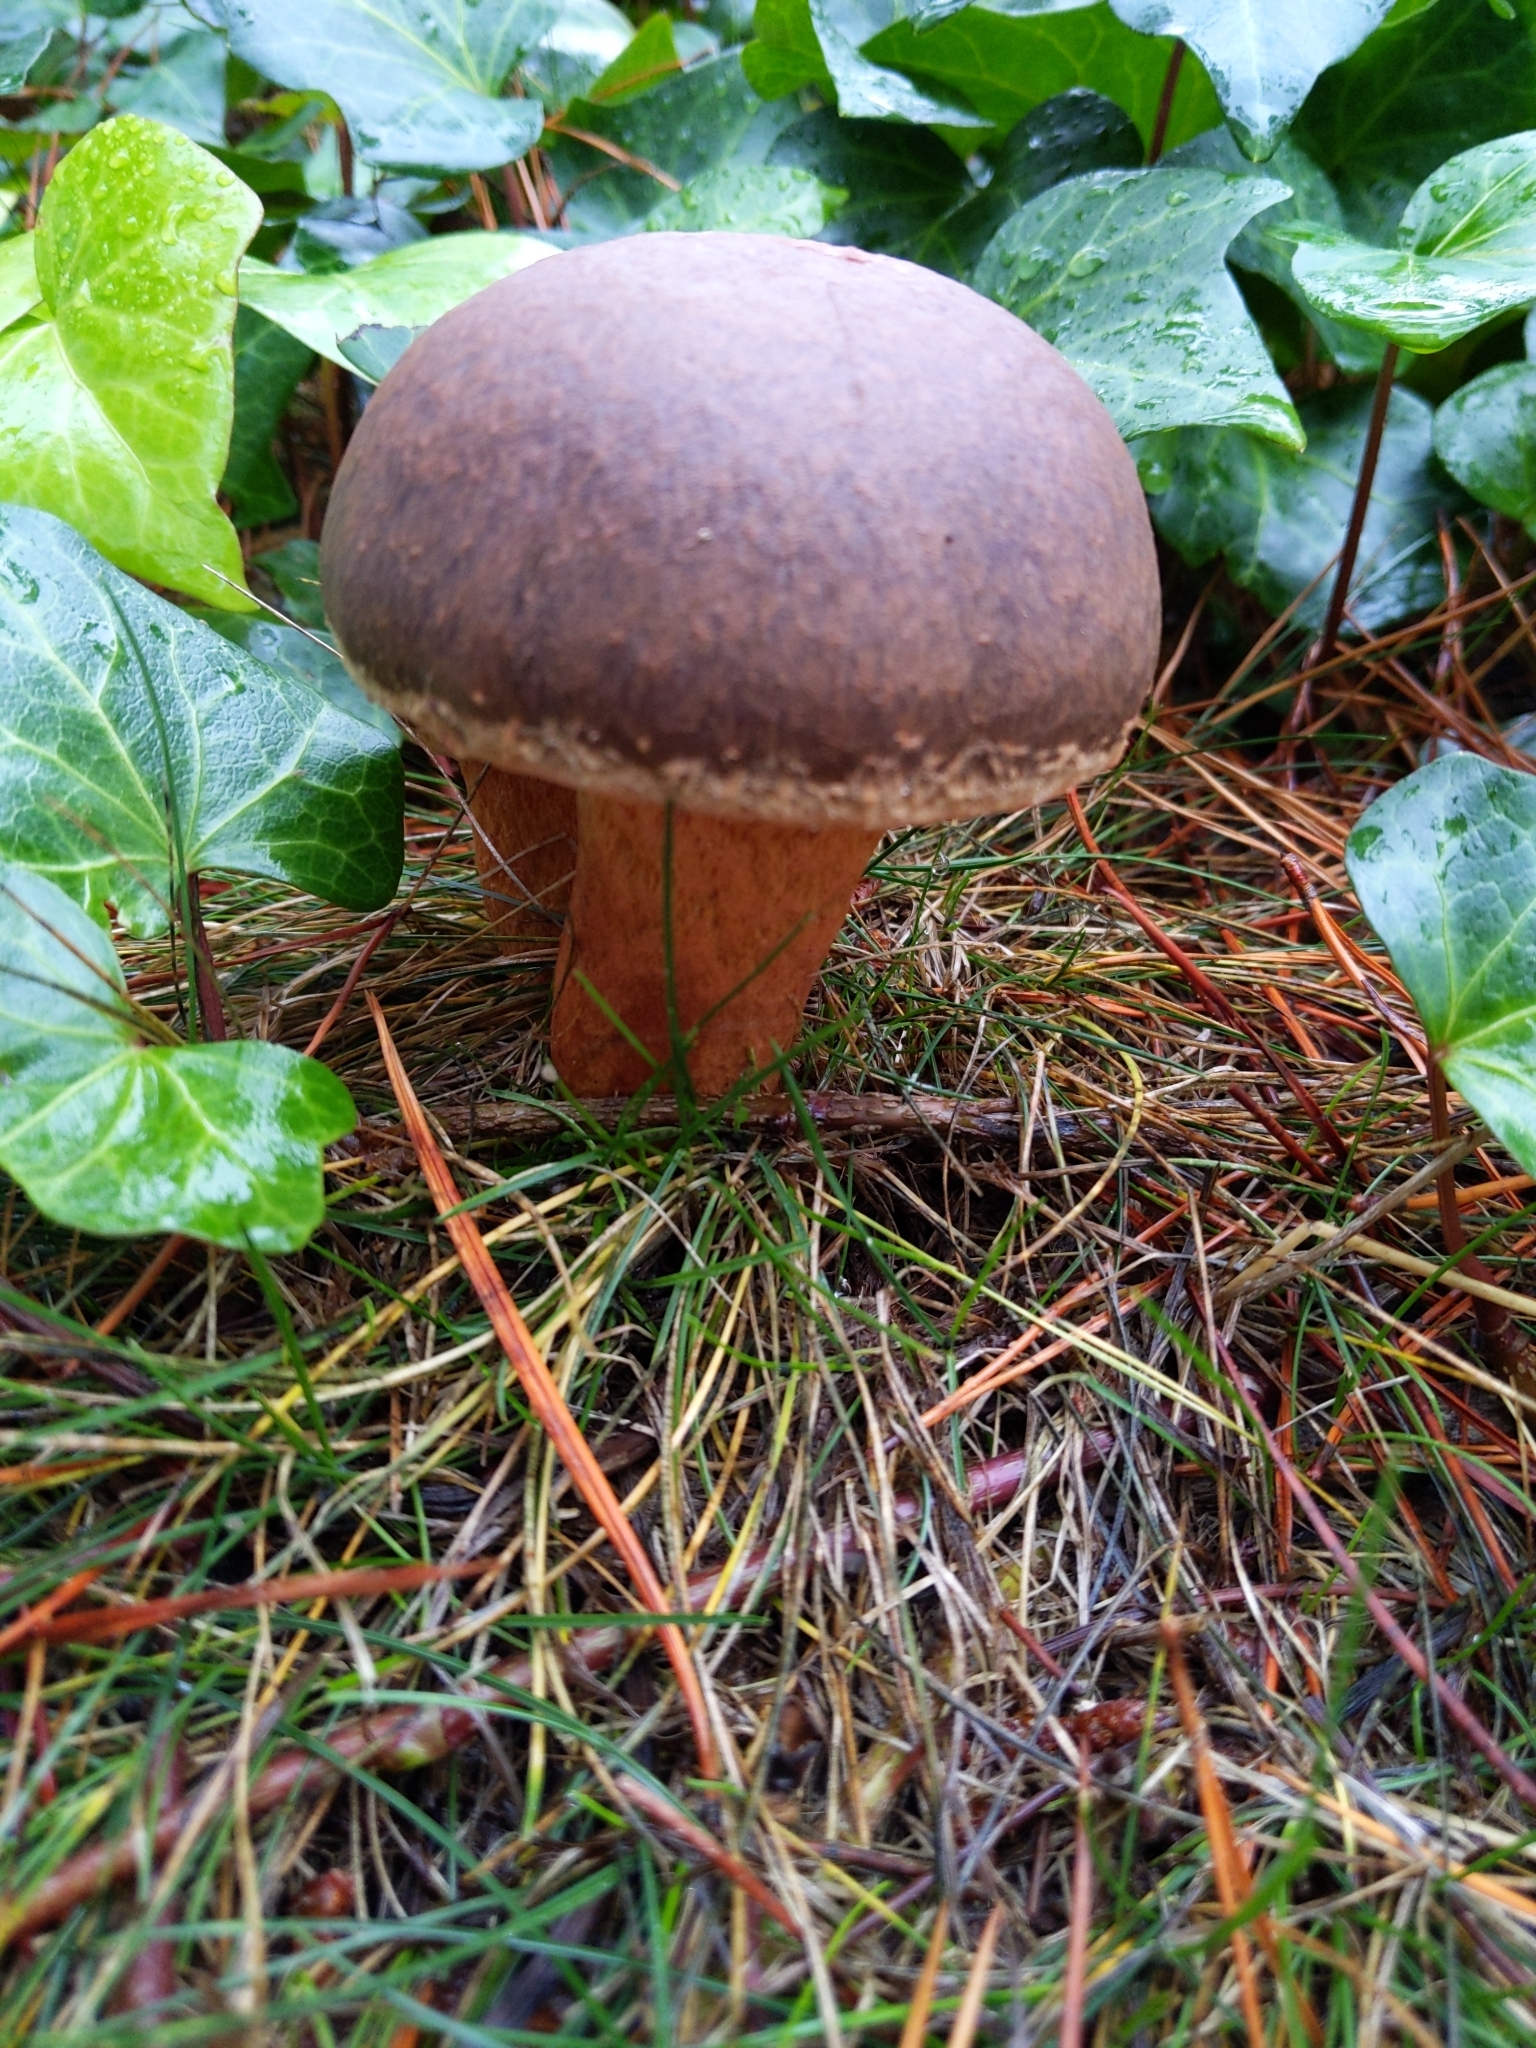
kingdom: Fungi
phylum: Basidiomycota
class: Agaricomycetes
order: Boletales
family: Gomphidiaceae
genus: Chroogomphus
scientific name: Chroogomphus vinicolor
